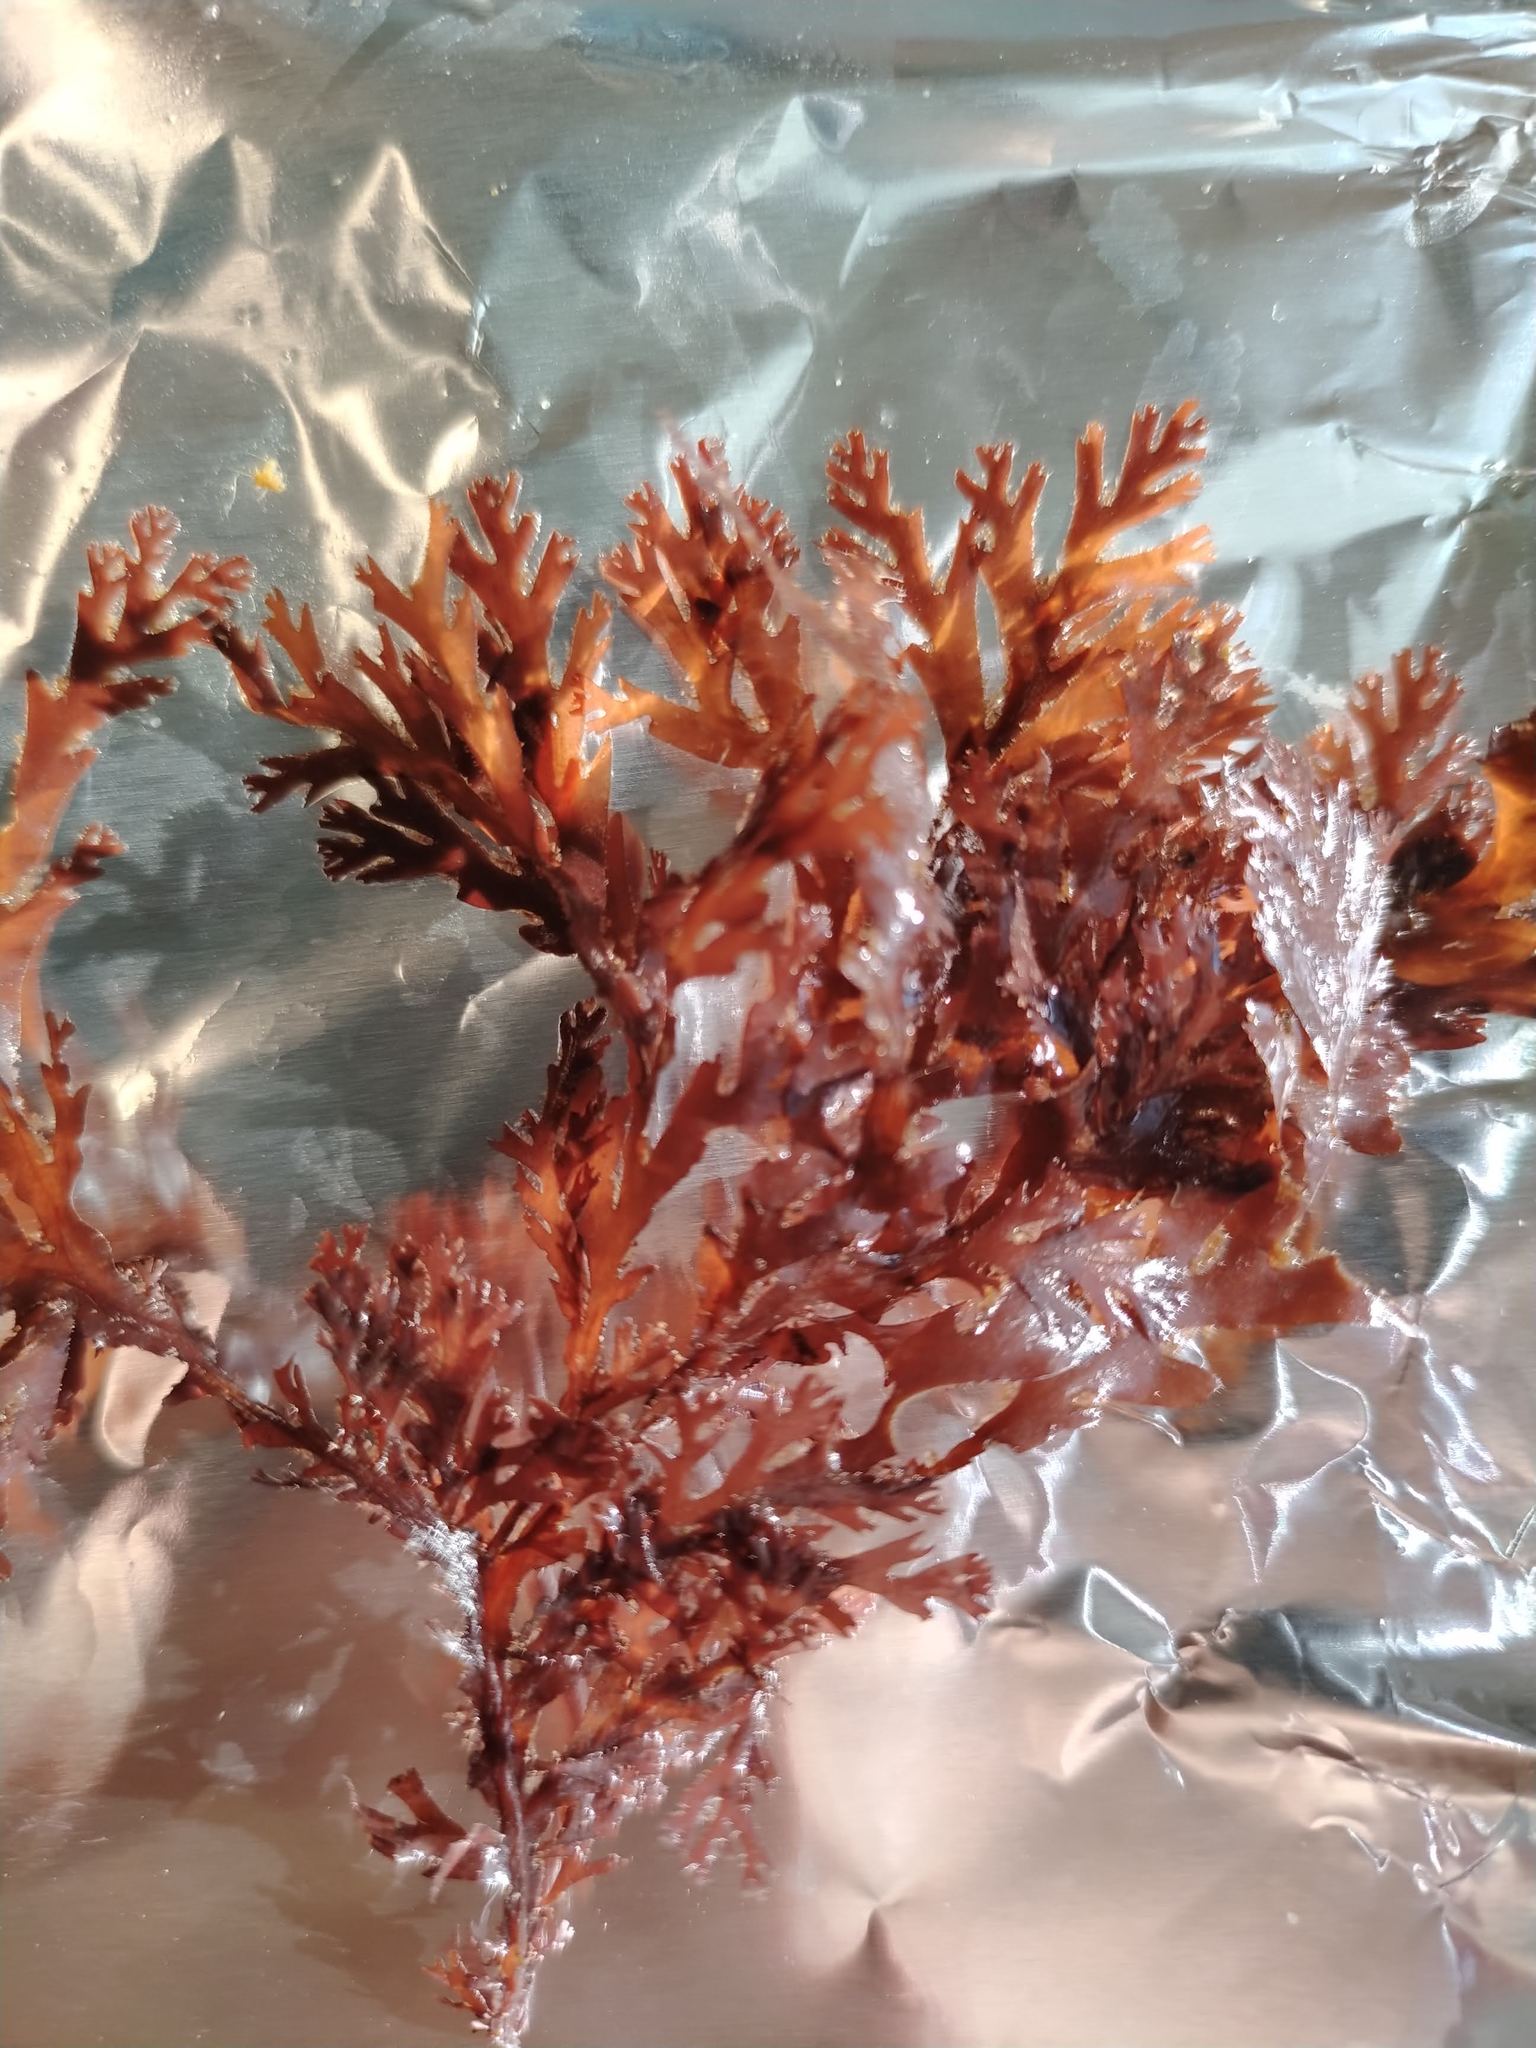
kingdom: Plantae
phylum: Rhodophyta
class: Florideophyceae
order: Ceramiales
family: Rhodomelaceae
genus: Odonthalia
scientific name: Odonthalia dentata
